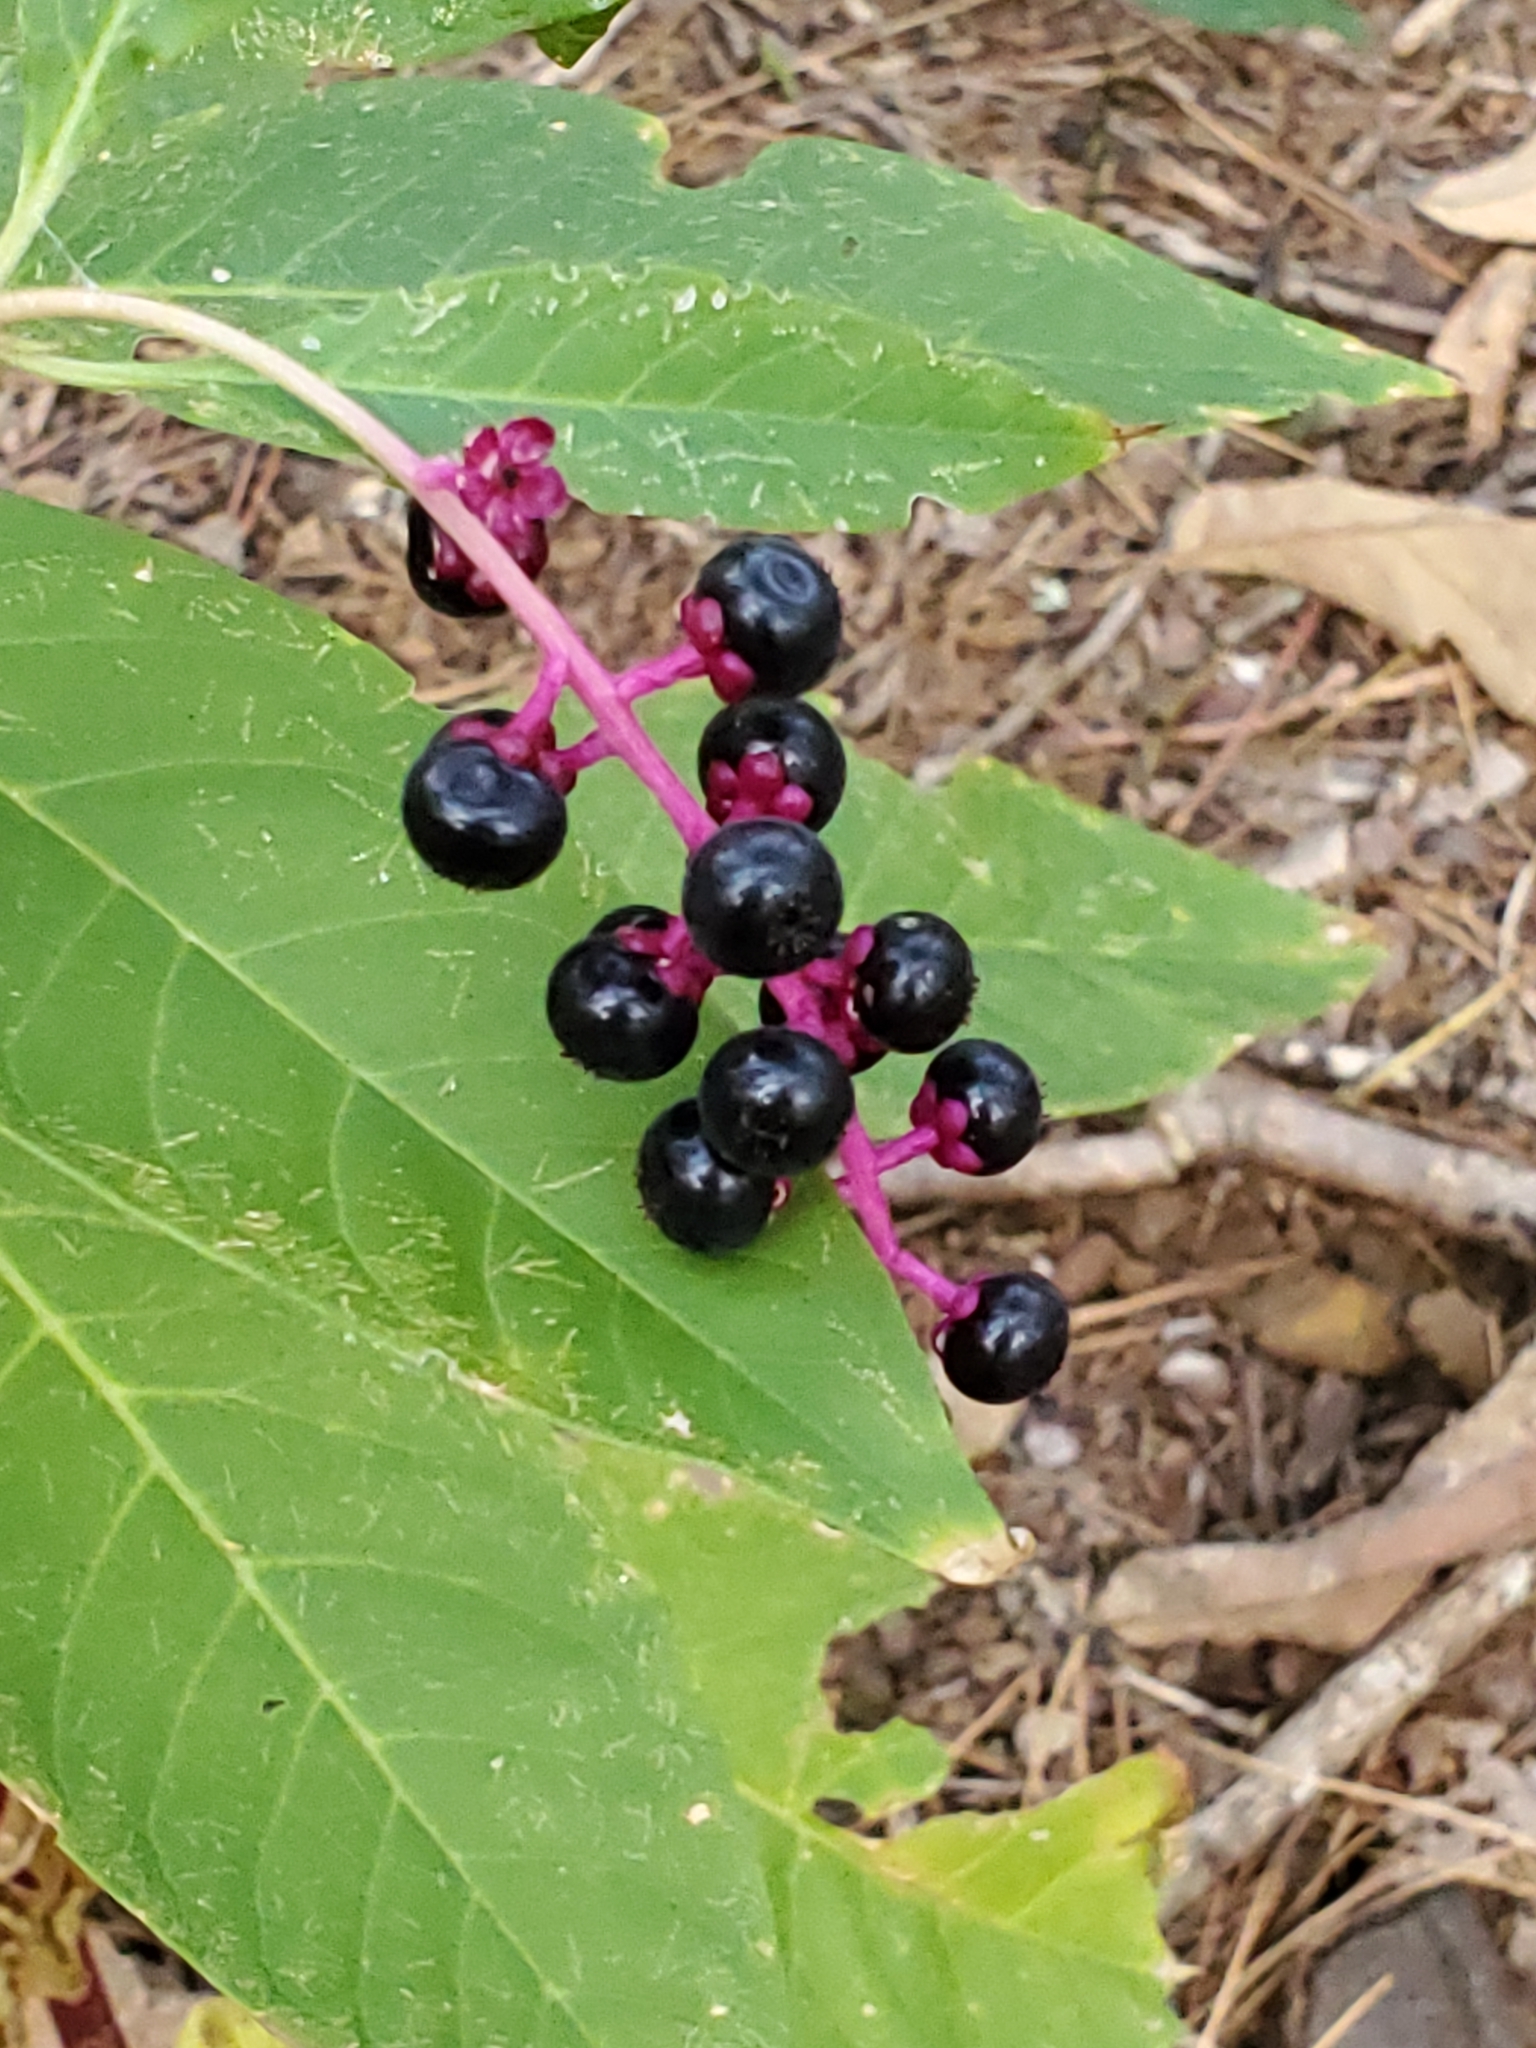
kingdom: Plantae
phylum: Tracheophyta
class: Magnoliopsida
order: Caryophyllales
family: Phytolaccaceae
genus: Phytolacca
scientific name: Phytolacca americana
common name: American pokeweed
